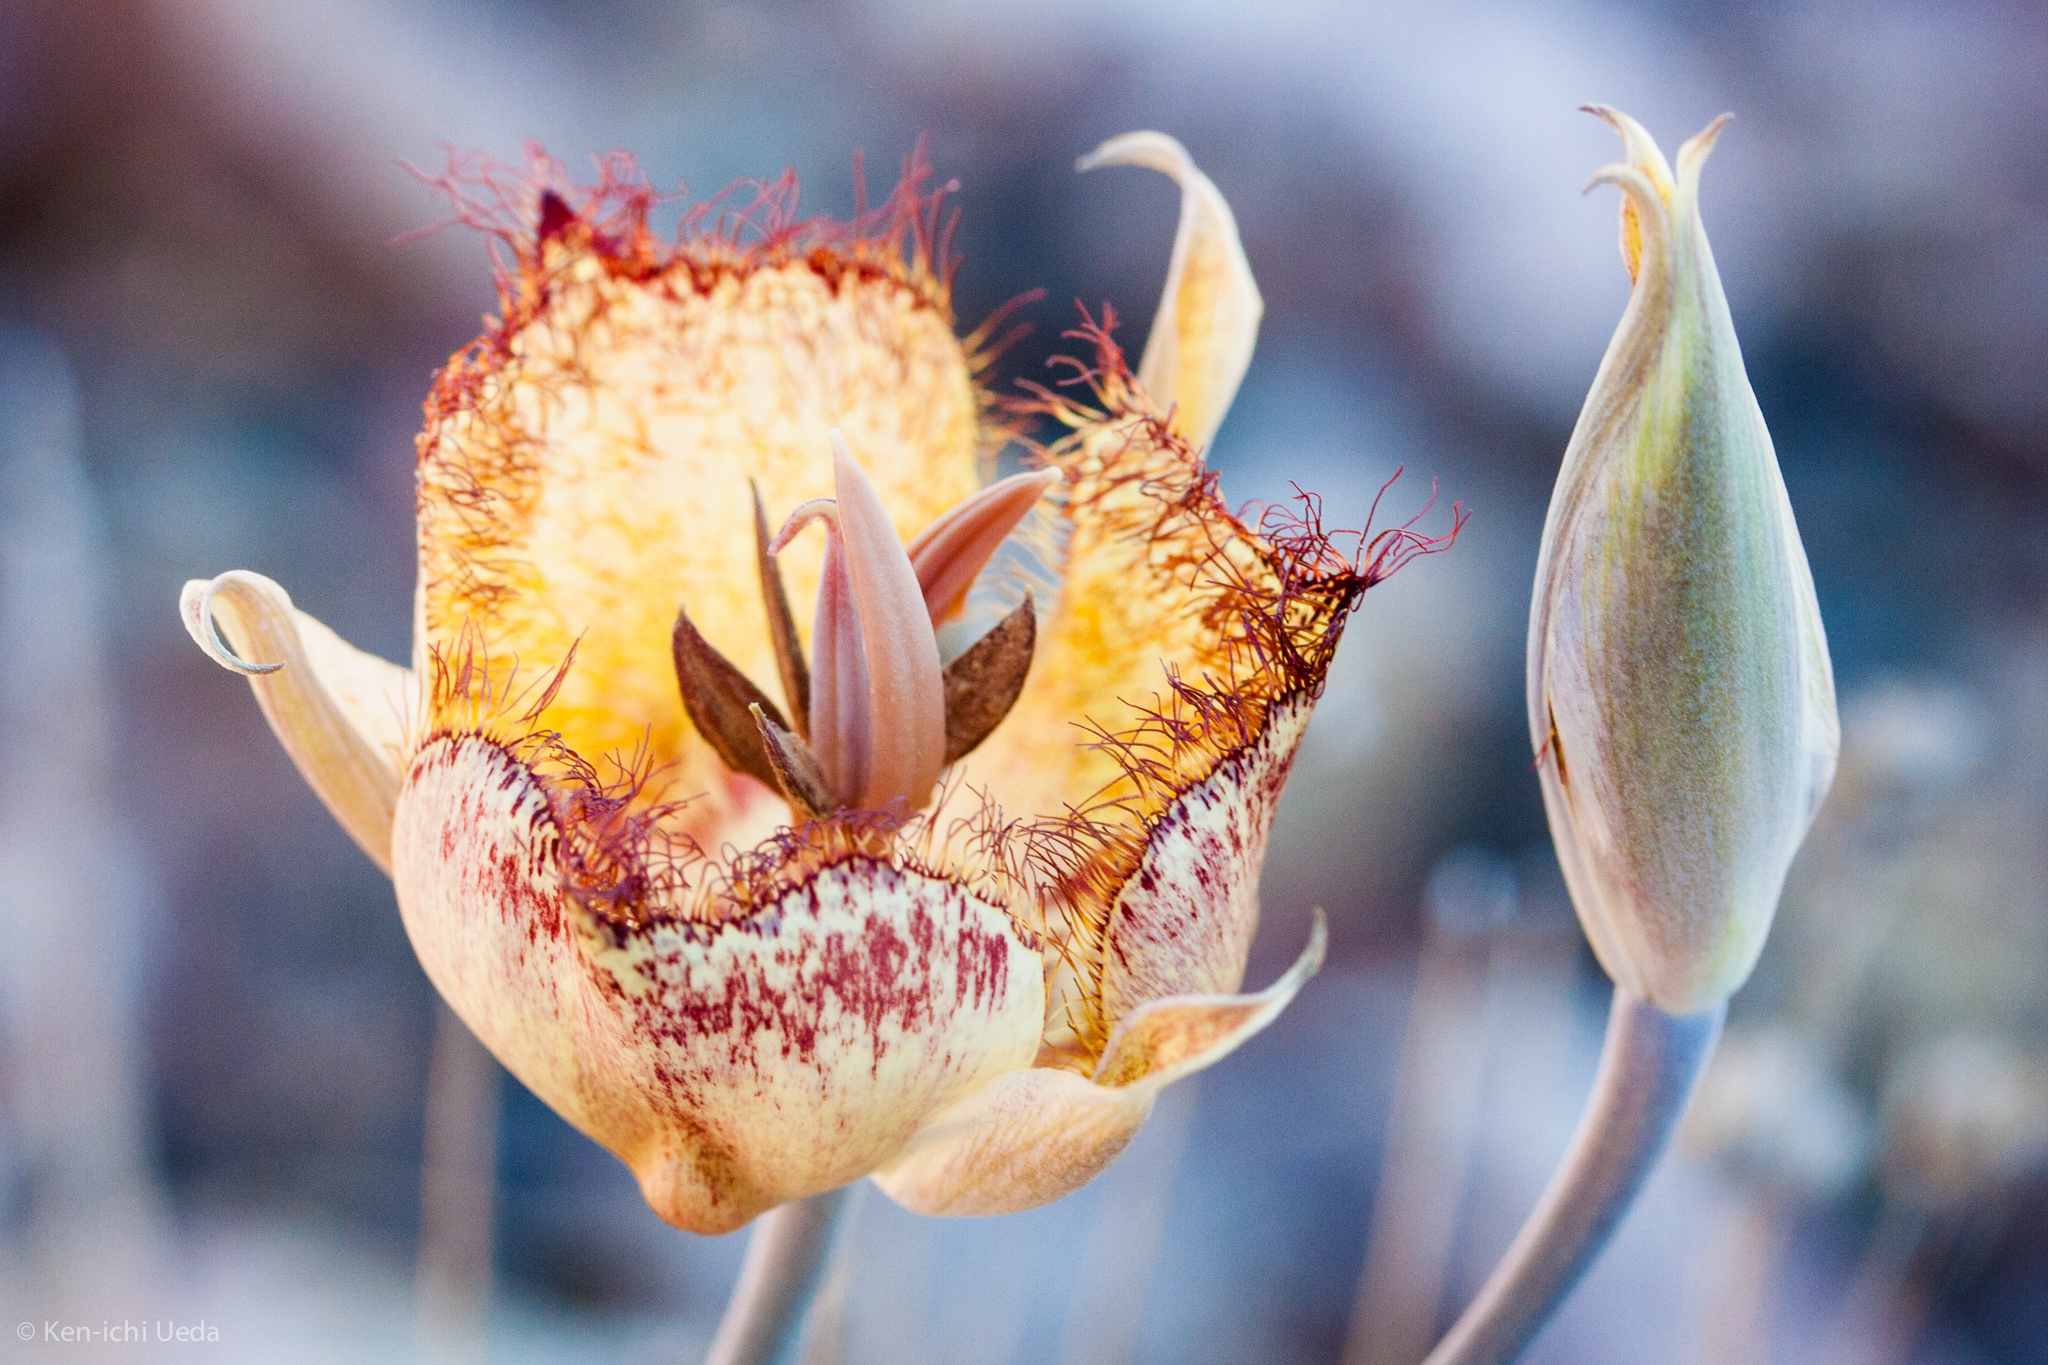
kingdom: Plantae
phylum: Tracheophyta
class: Liliopsida
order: Liliales
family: Liliaceae
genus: Calochortus
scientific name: Calochortus fimbriatus
